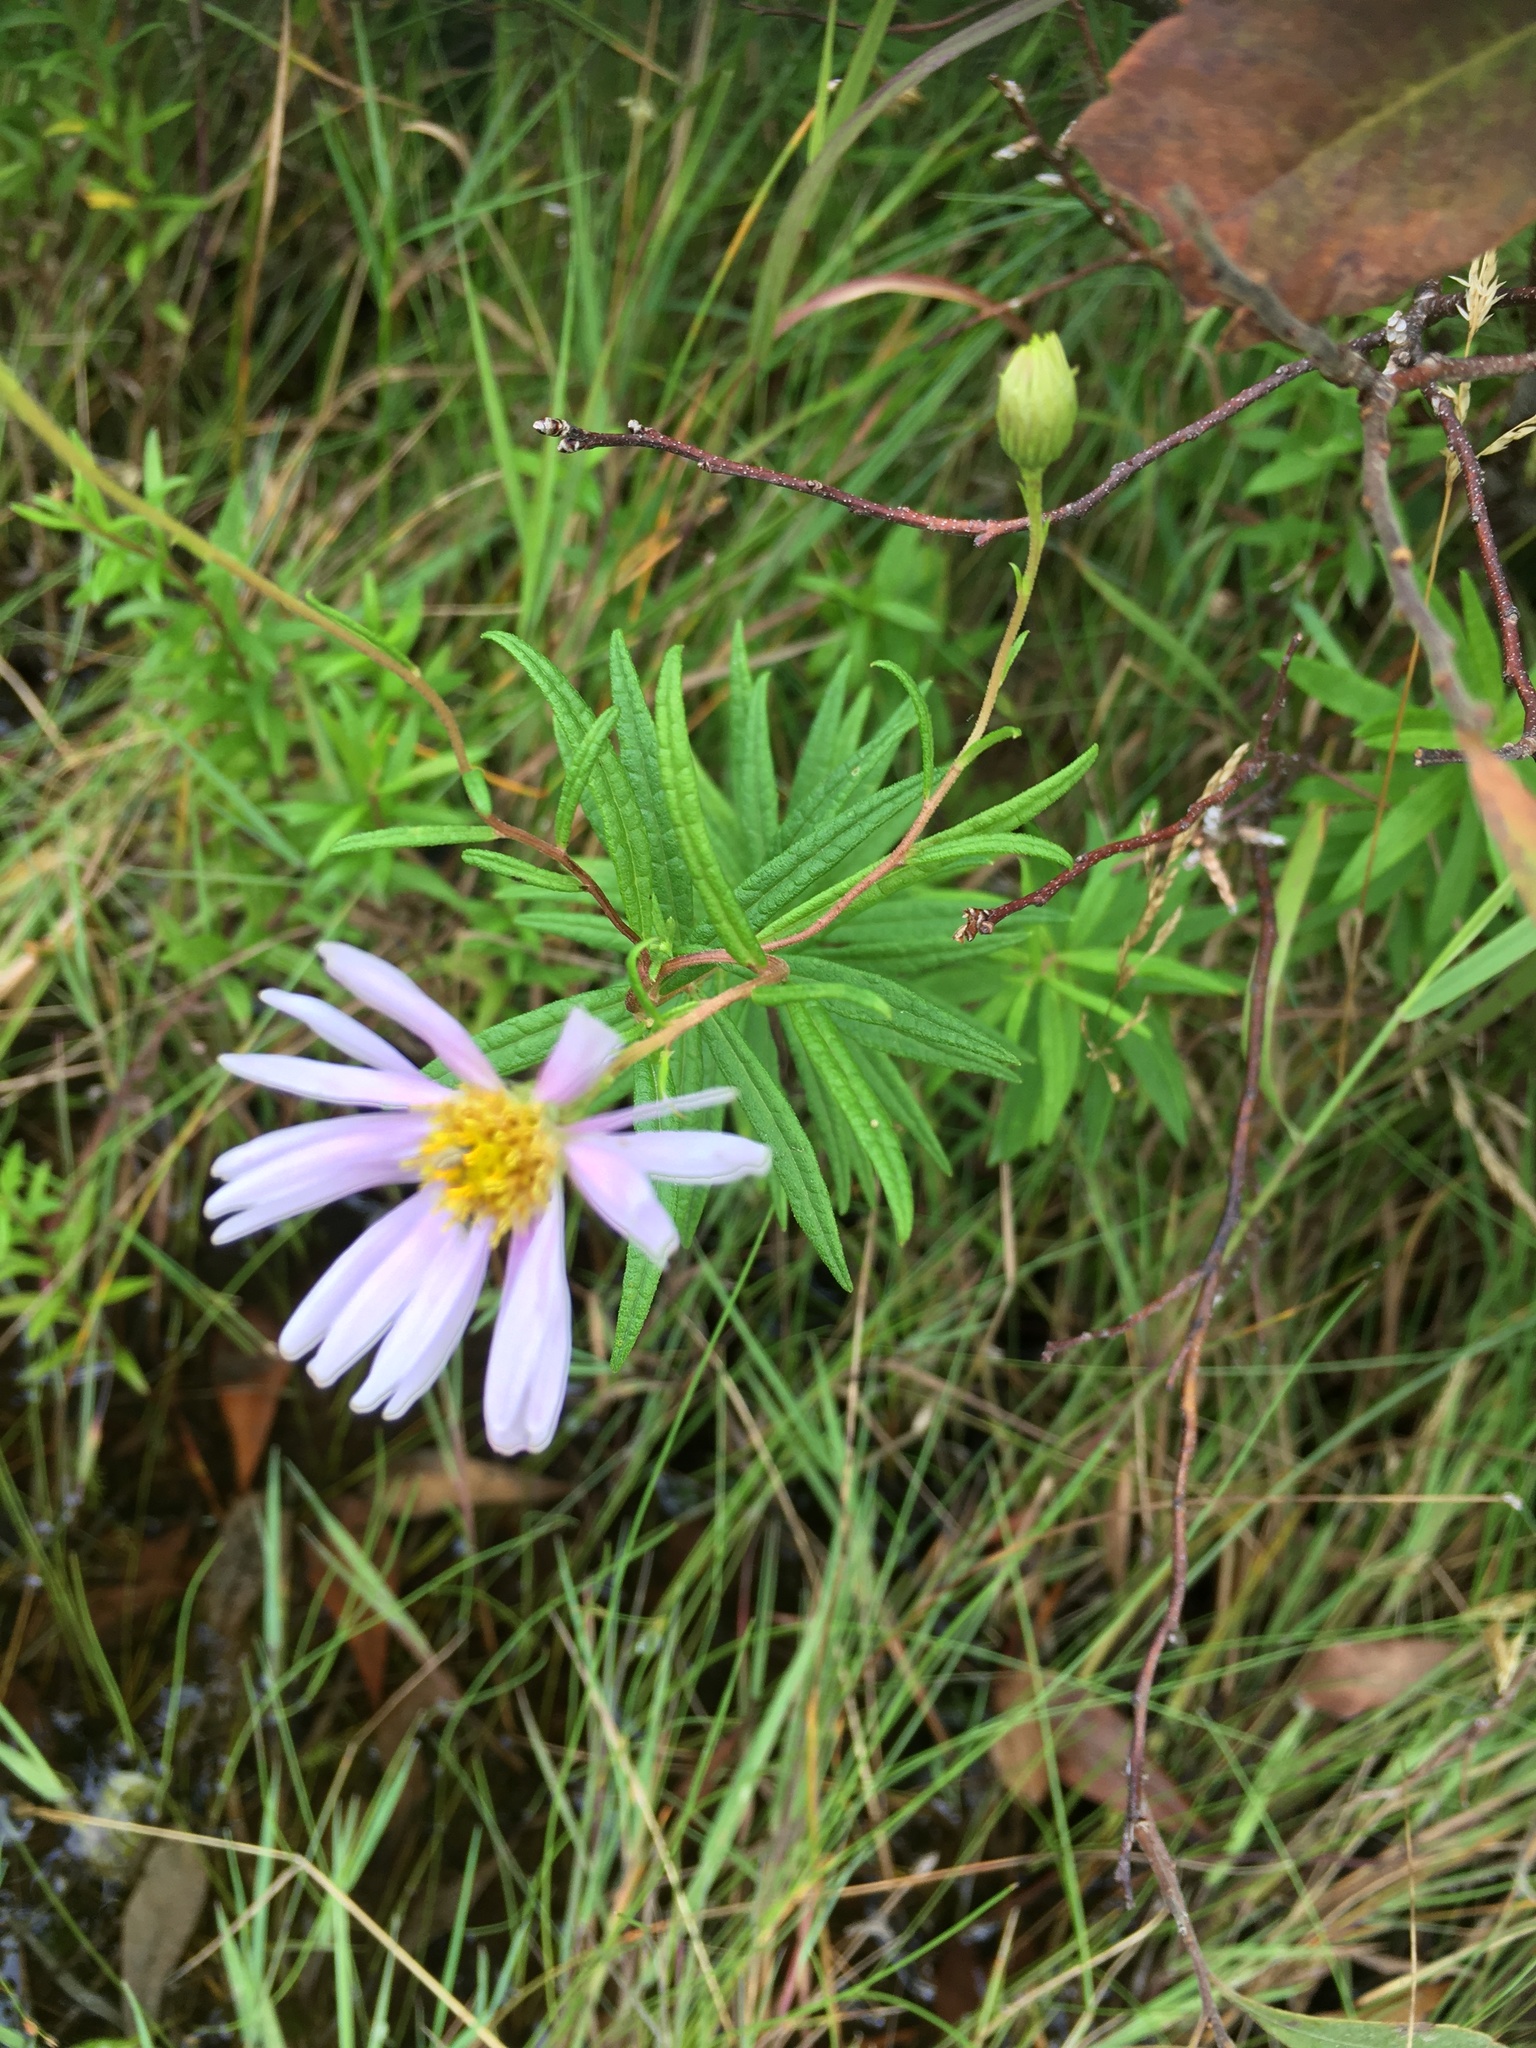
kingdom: Plantae
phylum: Tracheophyta
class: Magnoliopsida
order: Asterales
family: Asteraceae
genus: Oclemena
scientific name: Oclemena nemoralis
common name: Bog aster
